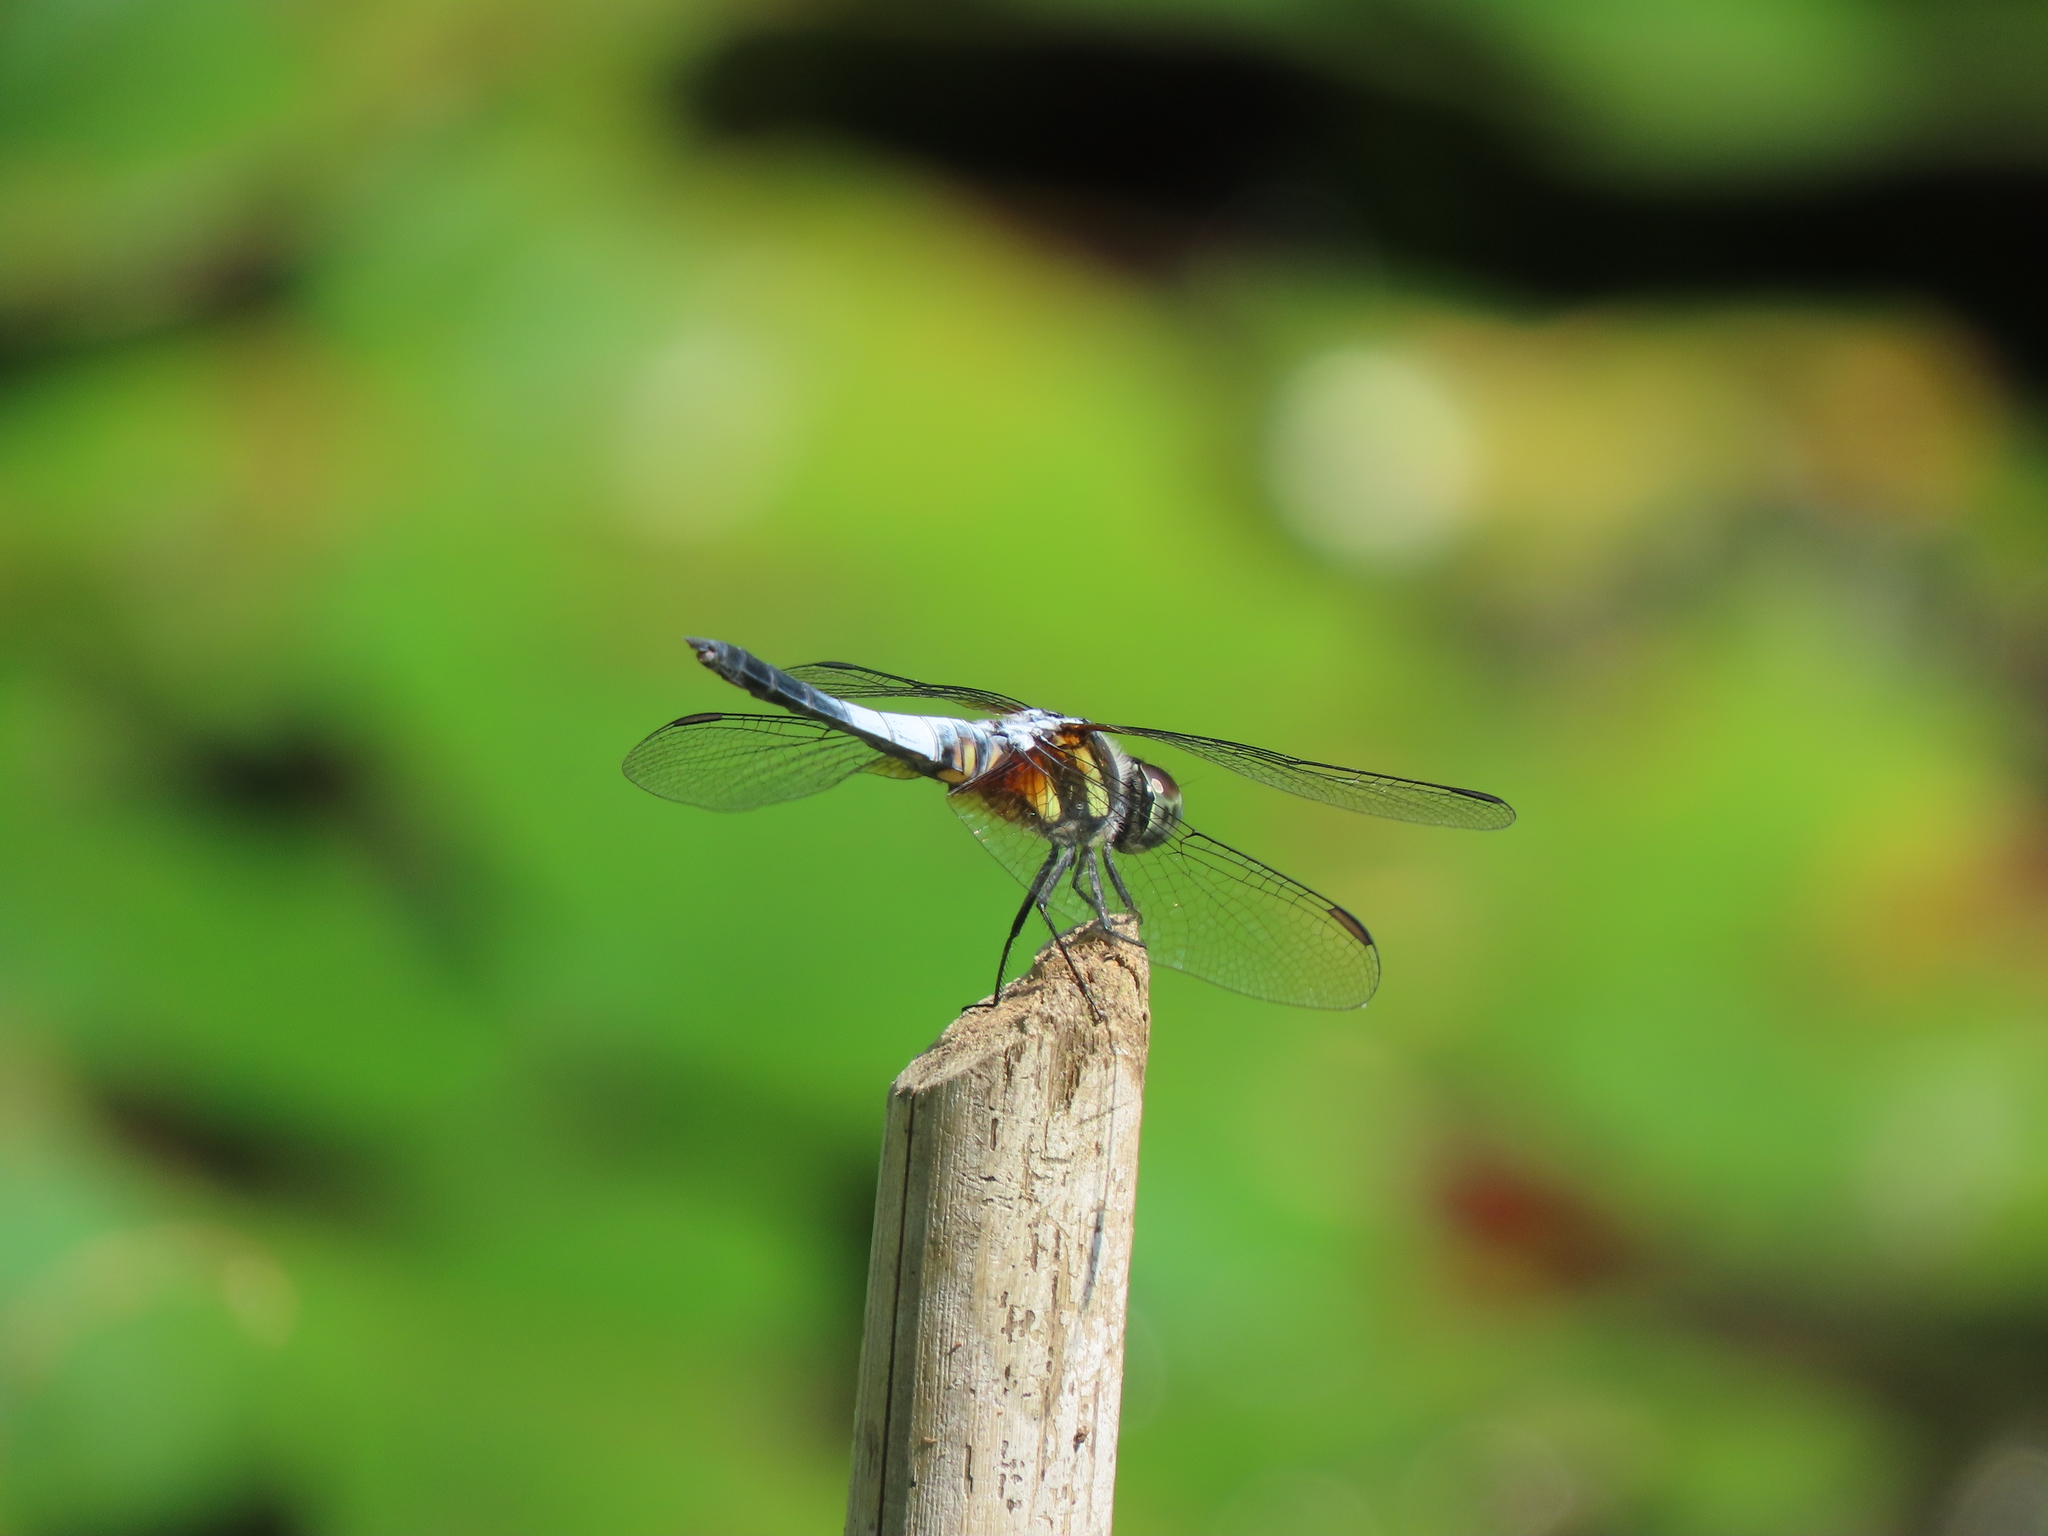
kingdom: Animalia
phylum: Arthropoda
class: Insecta
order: Odonata
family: Libellulidae
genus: Brachydiplax
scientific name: Brachydiplax chalybea
